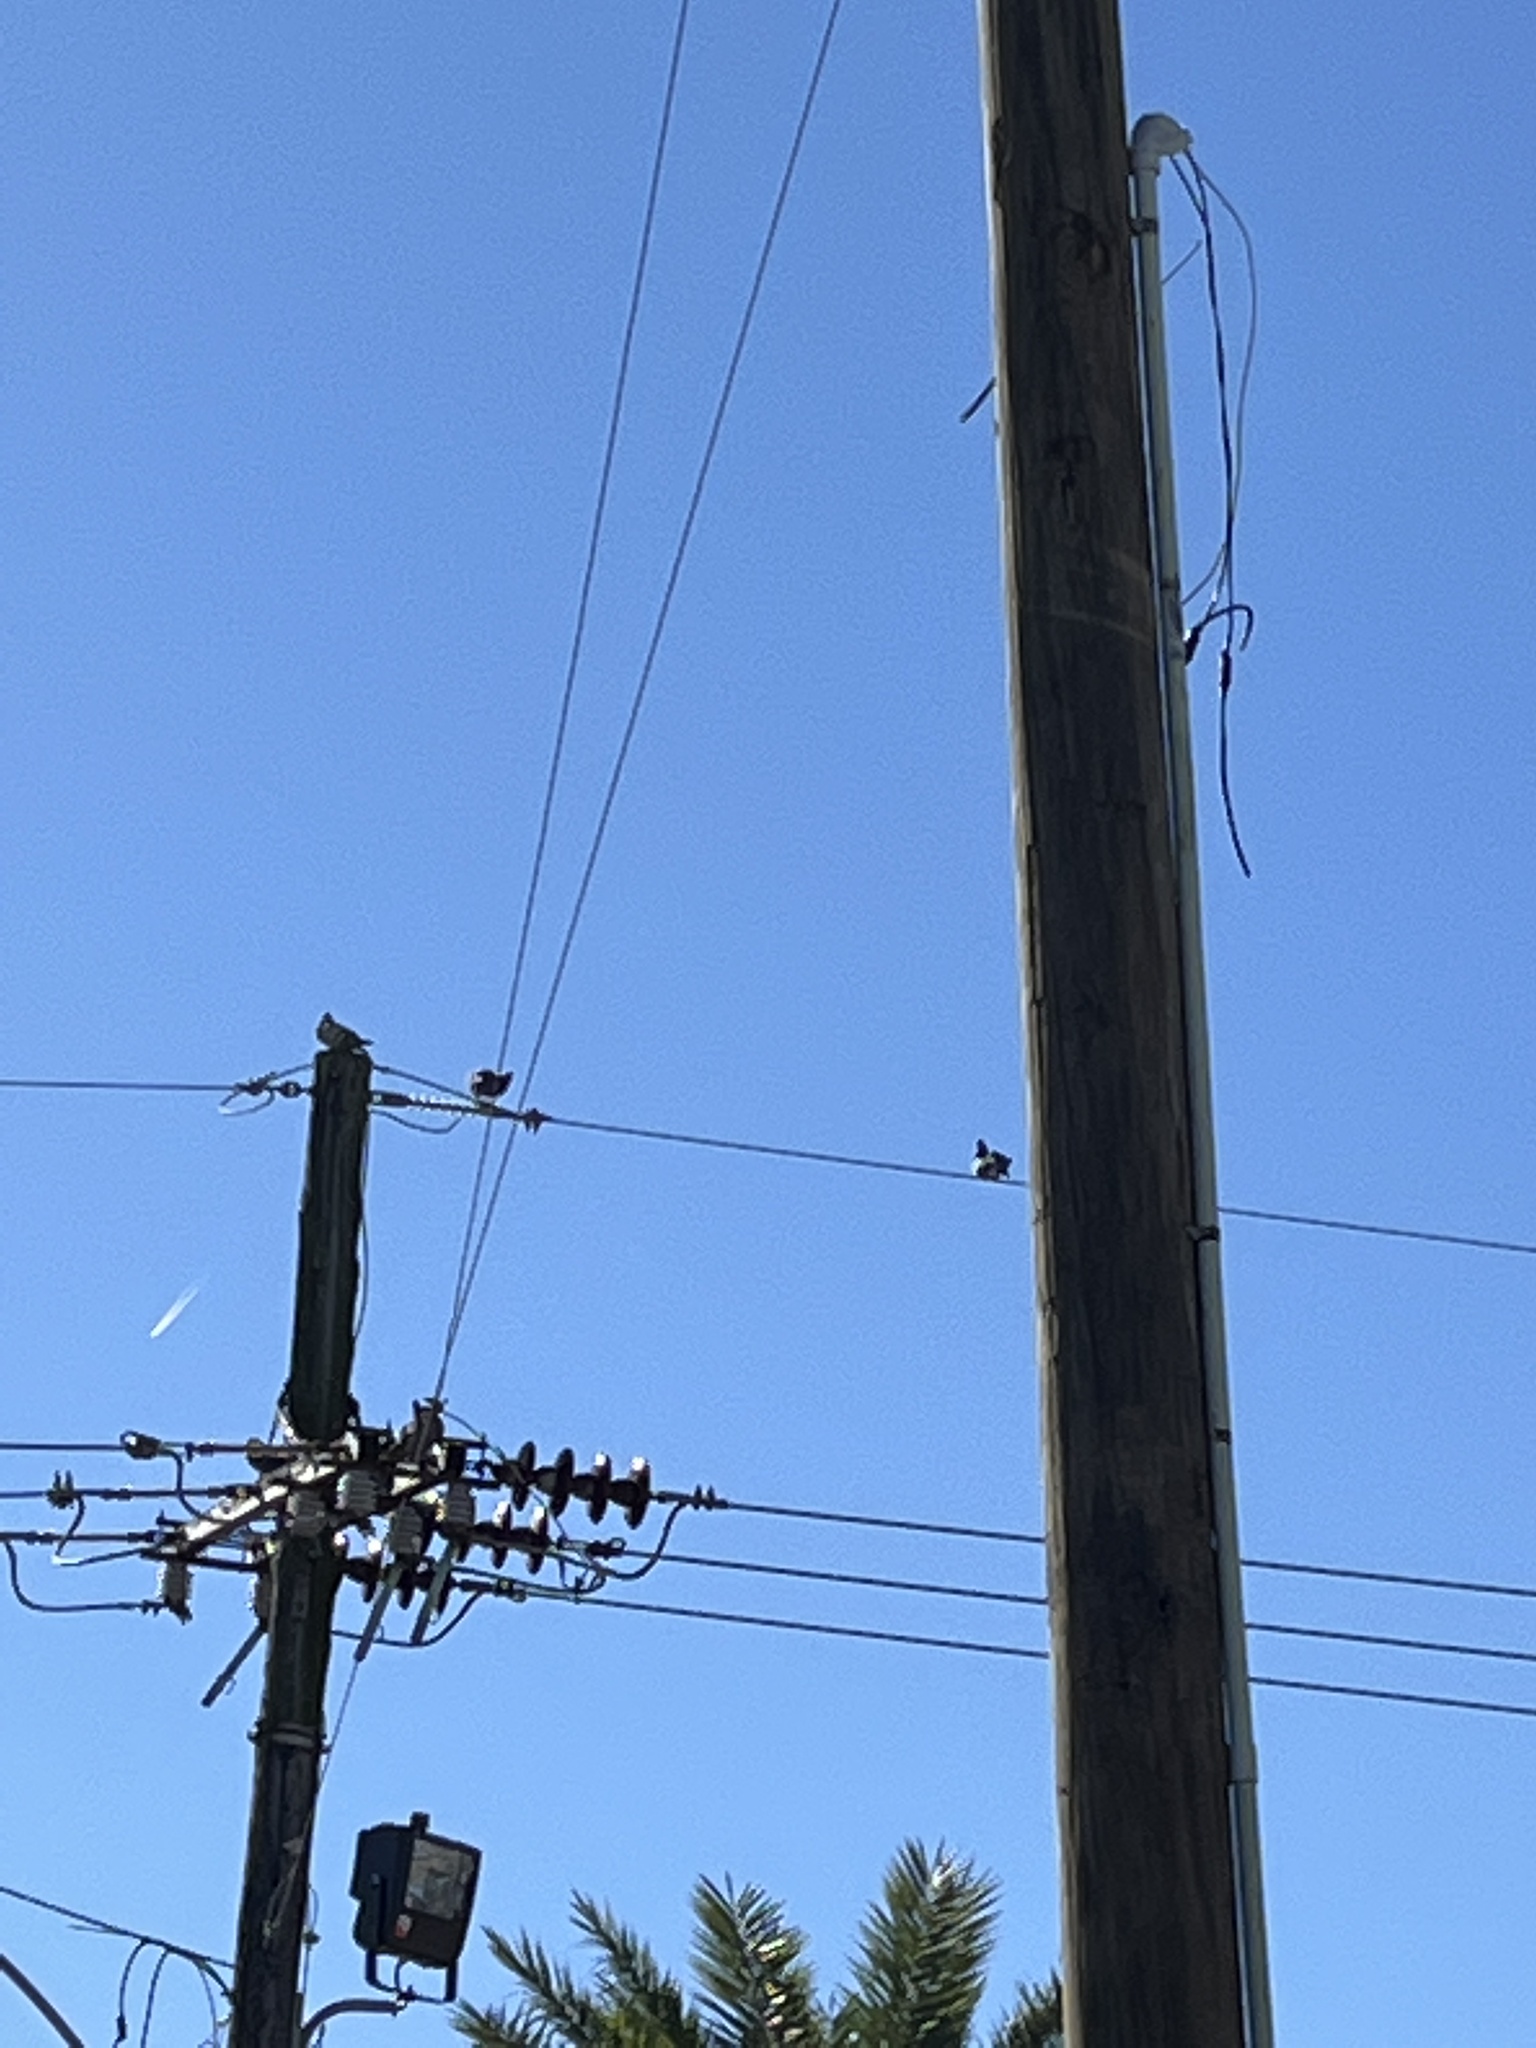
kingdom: Animalia
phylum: Chordata
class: Aves
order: Columbiformes
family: Columbidae
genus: Columba
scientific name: Columba livia
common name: Rock pigeon
